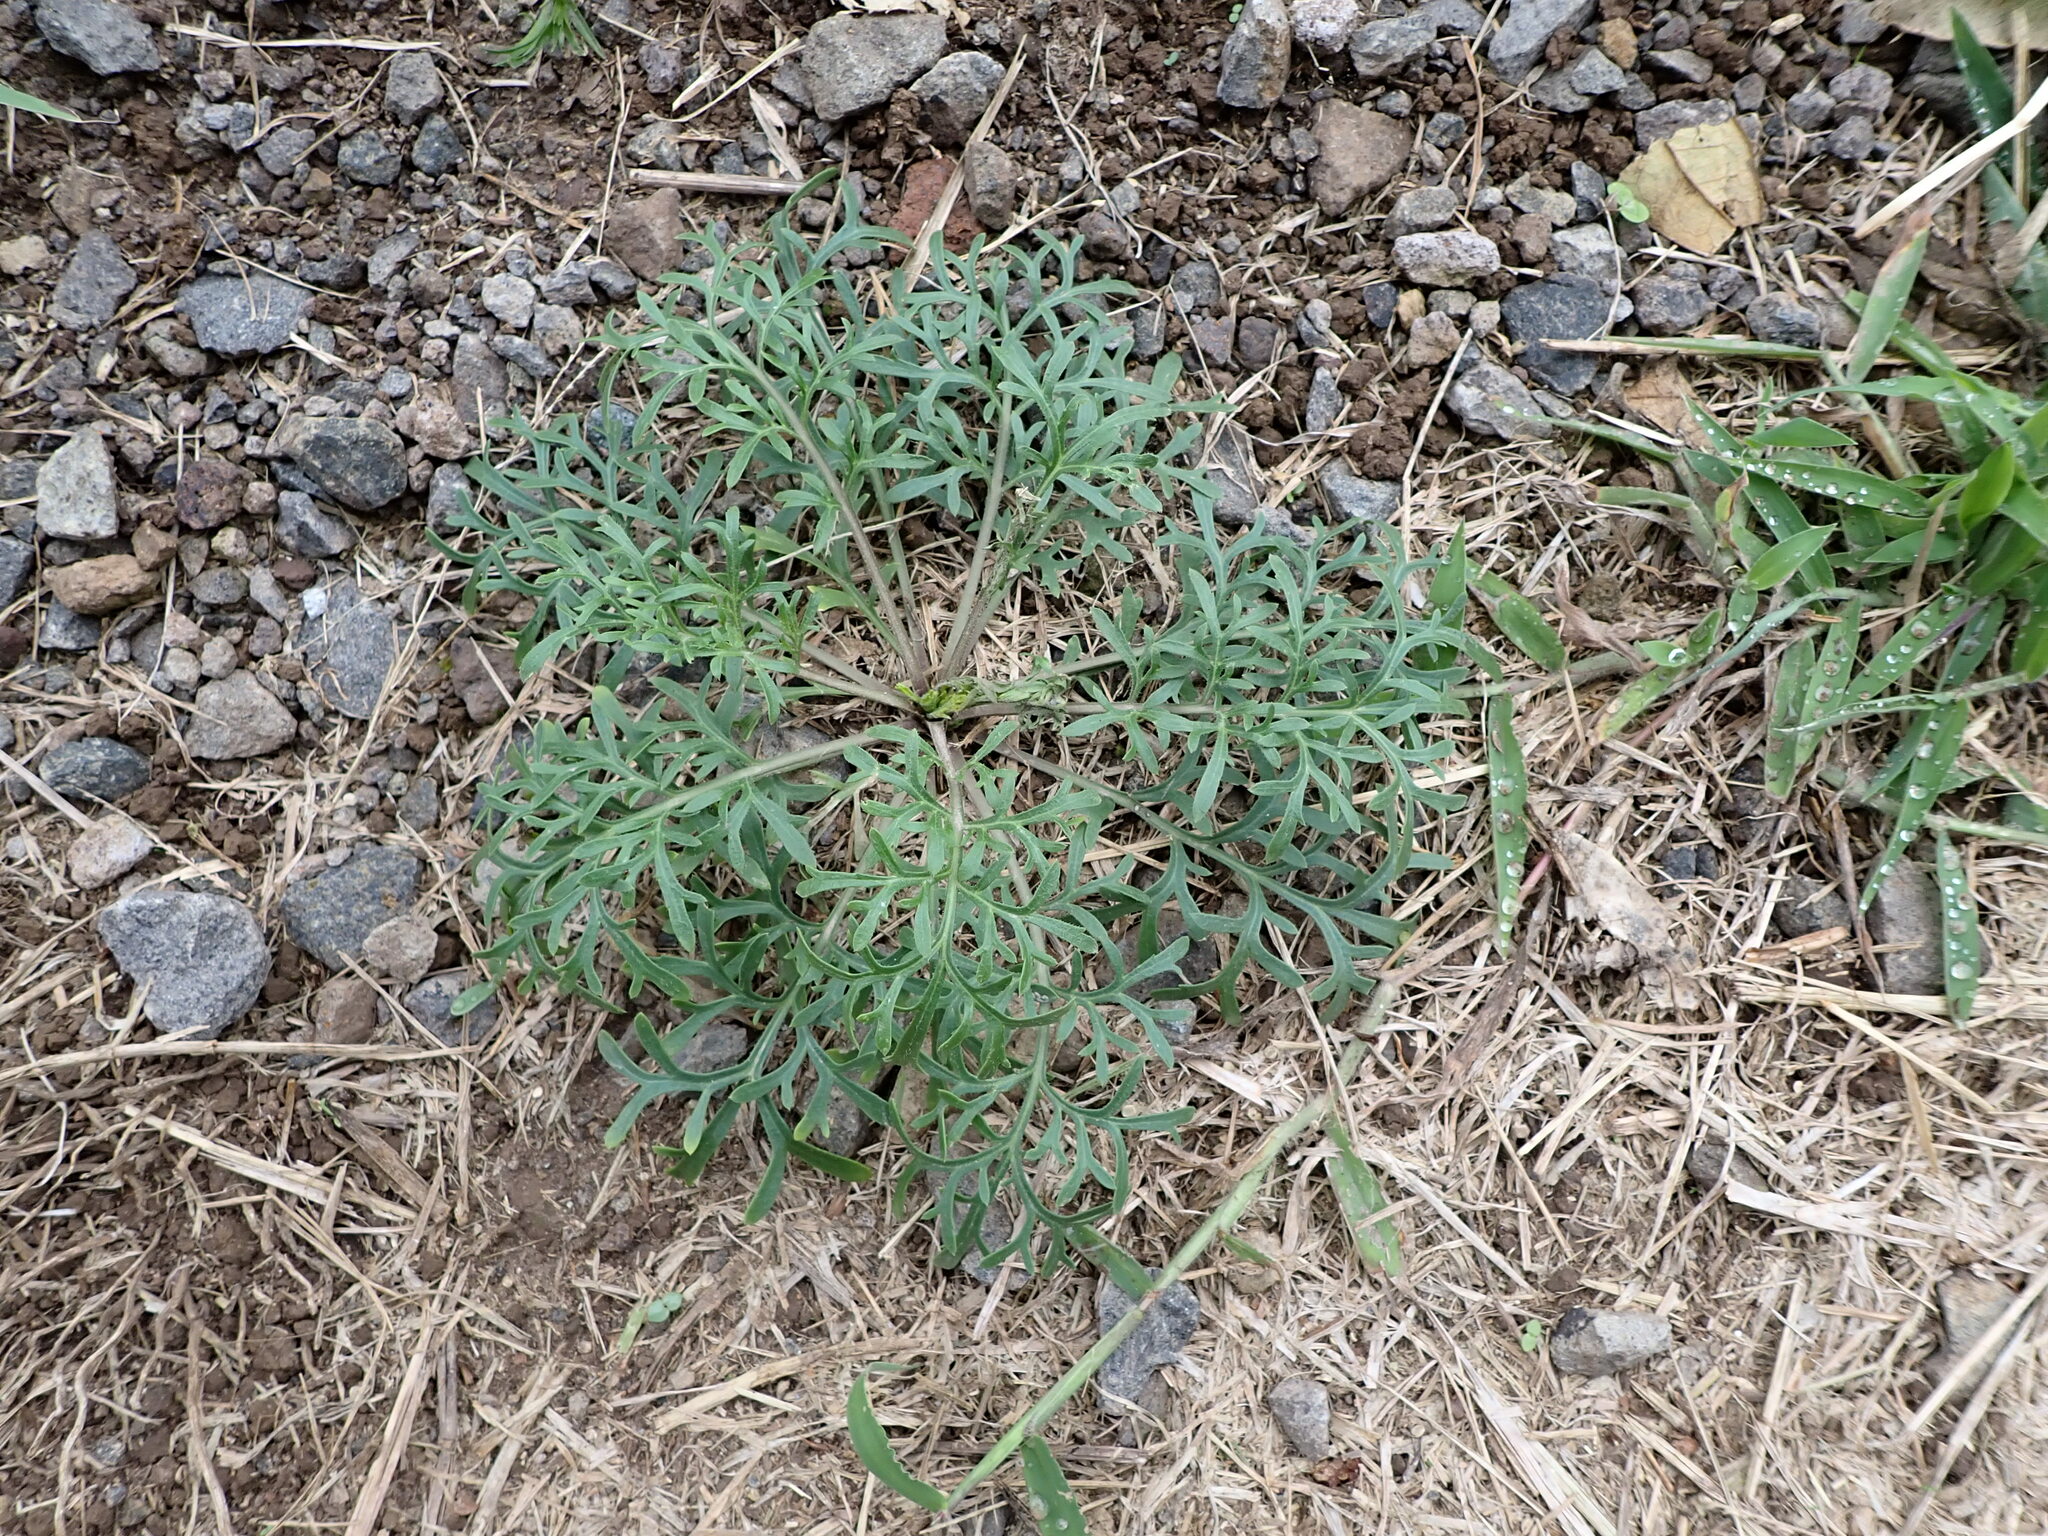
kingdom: Plantae
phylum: Tracheophyta
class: Magnoliopsida
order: Brassicales
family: Brassicaceae
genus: Lepidium
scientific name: Lepidium bonariense
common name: Argentine pepperwort
